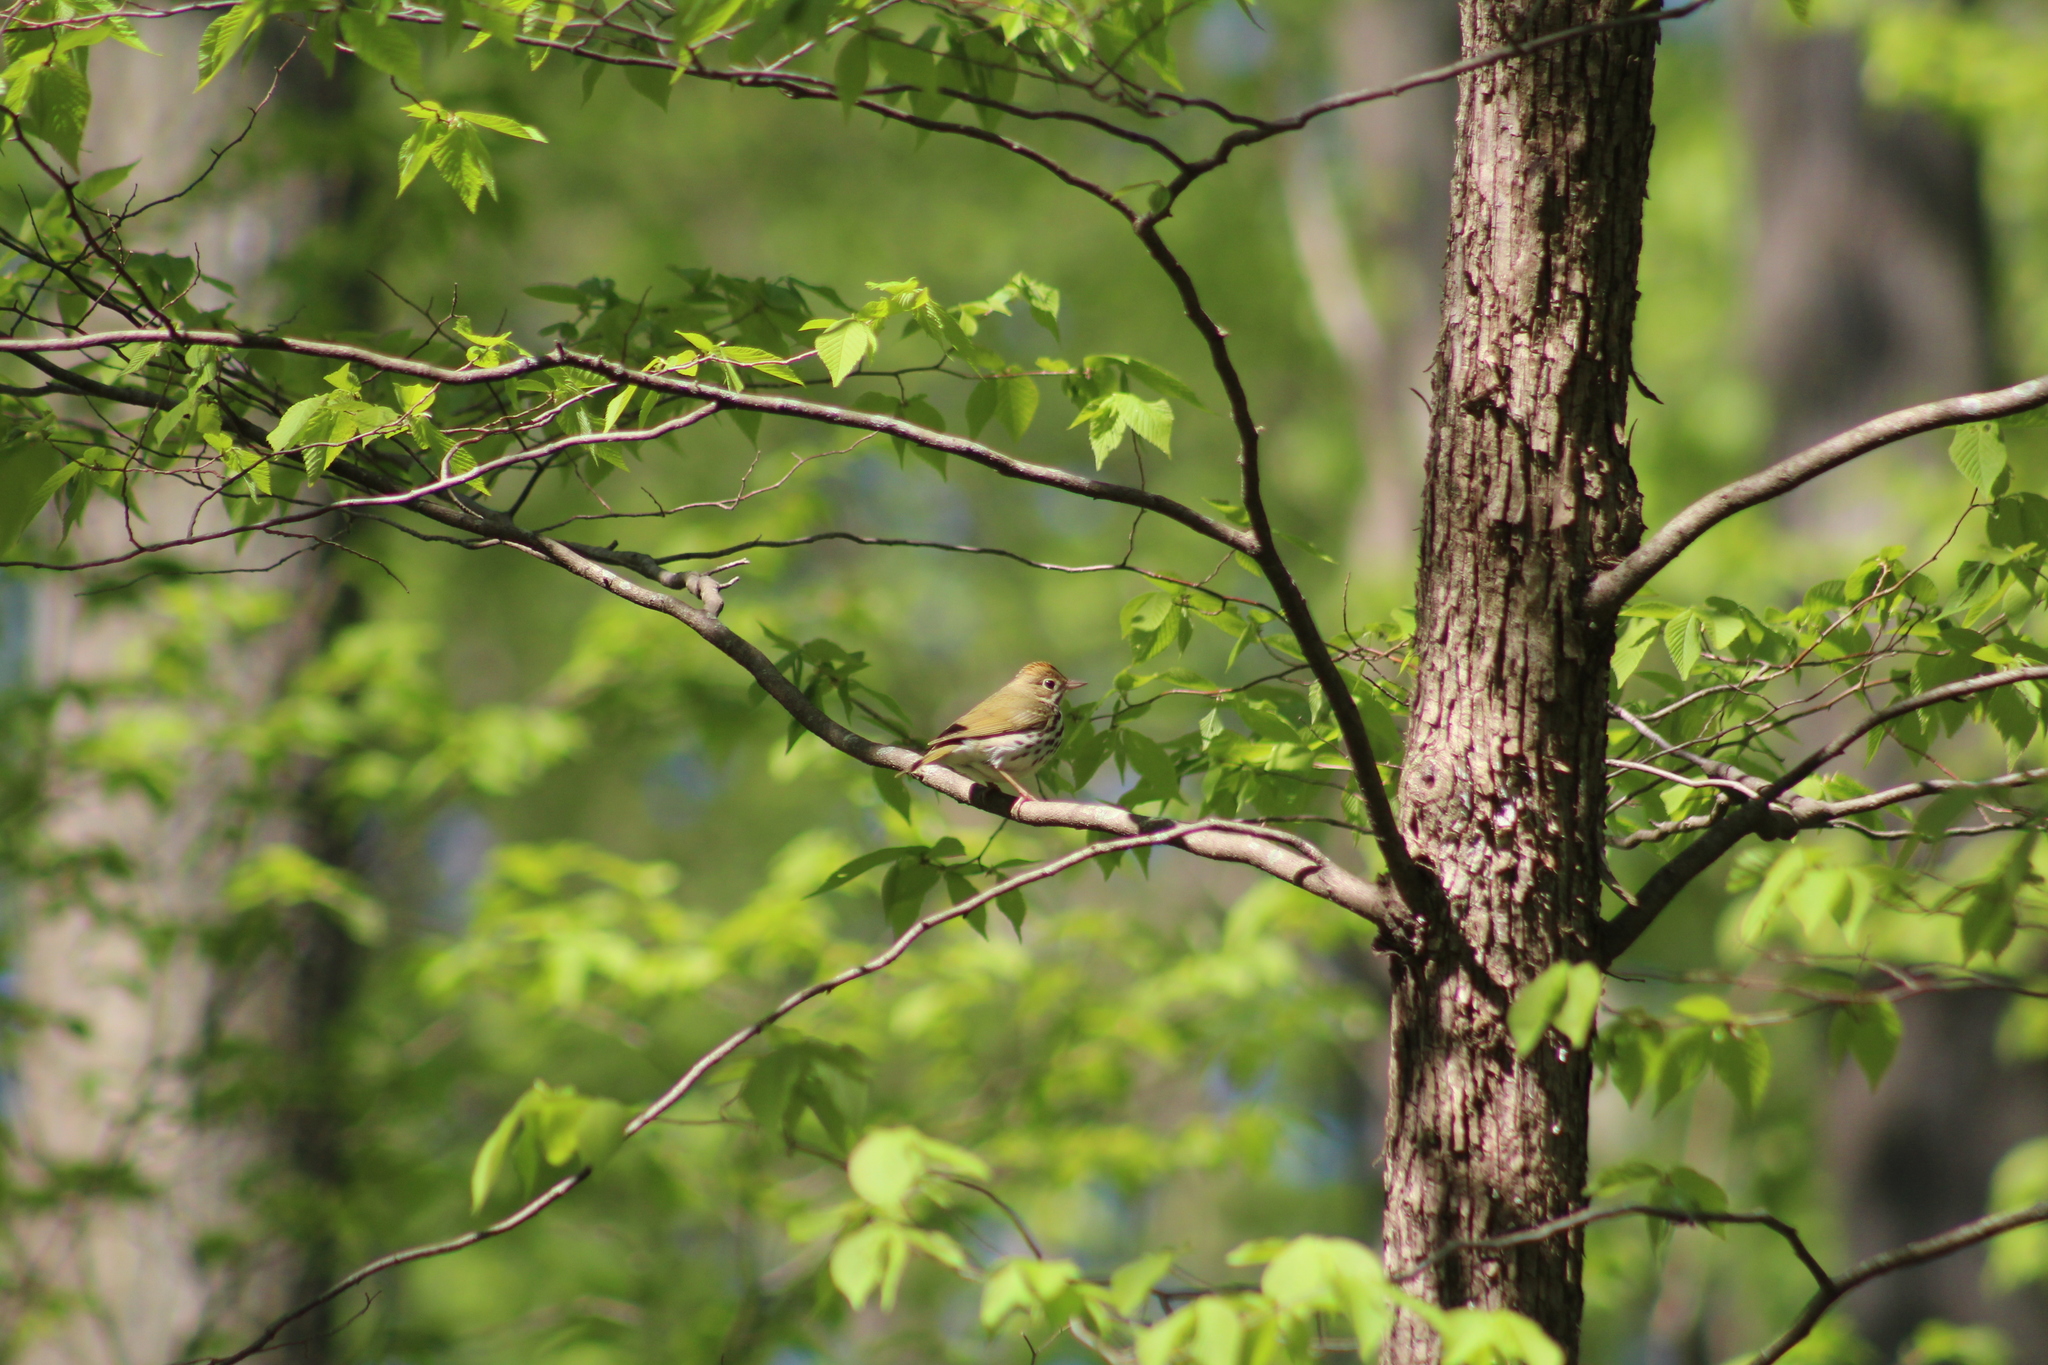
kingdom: Animalia
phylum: Chordata
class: Aves
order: Passeriformes
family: Parulidae
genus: Seiurus
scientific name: Seiurus aurocapilla
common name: Ovenbird
